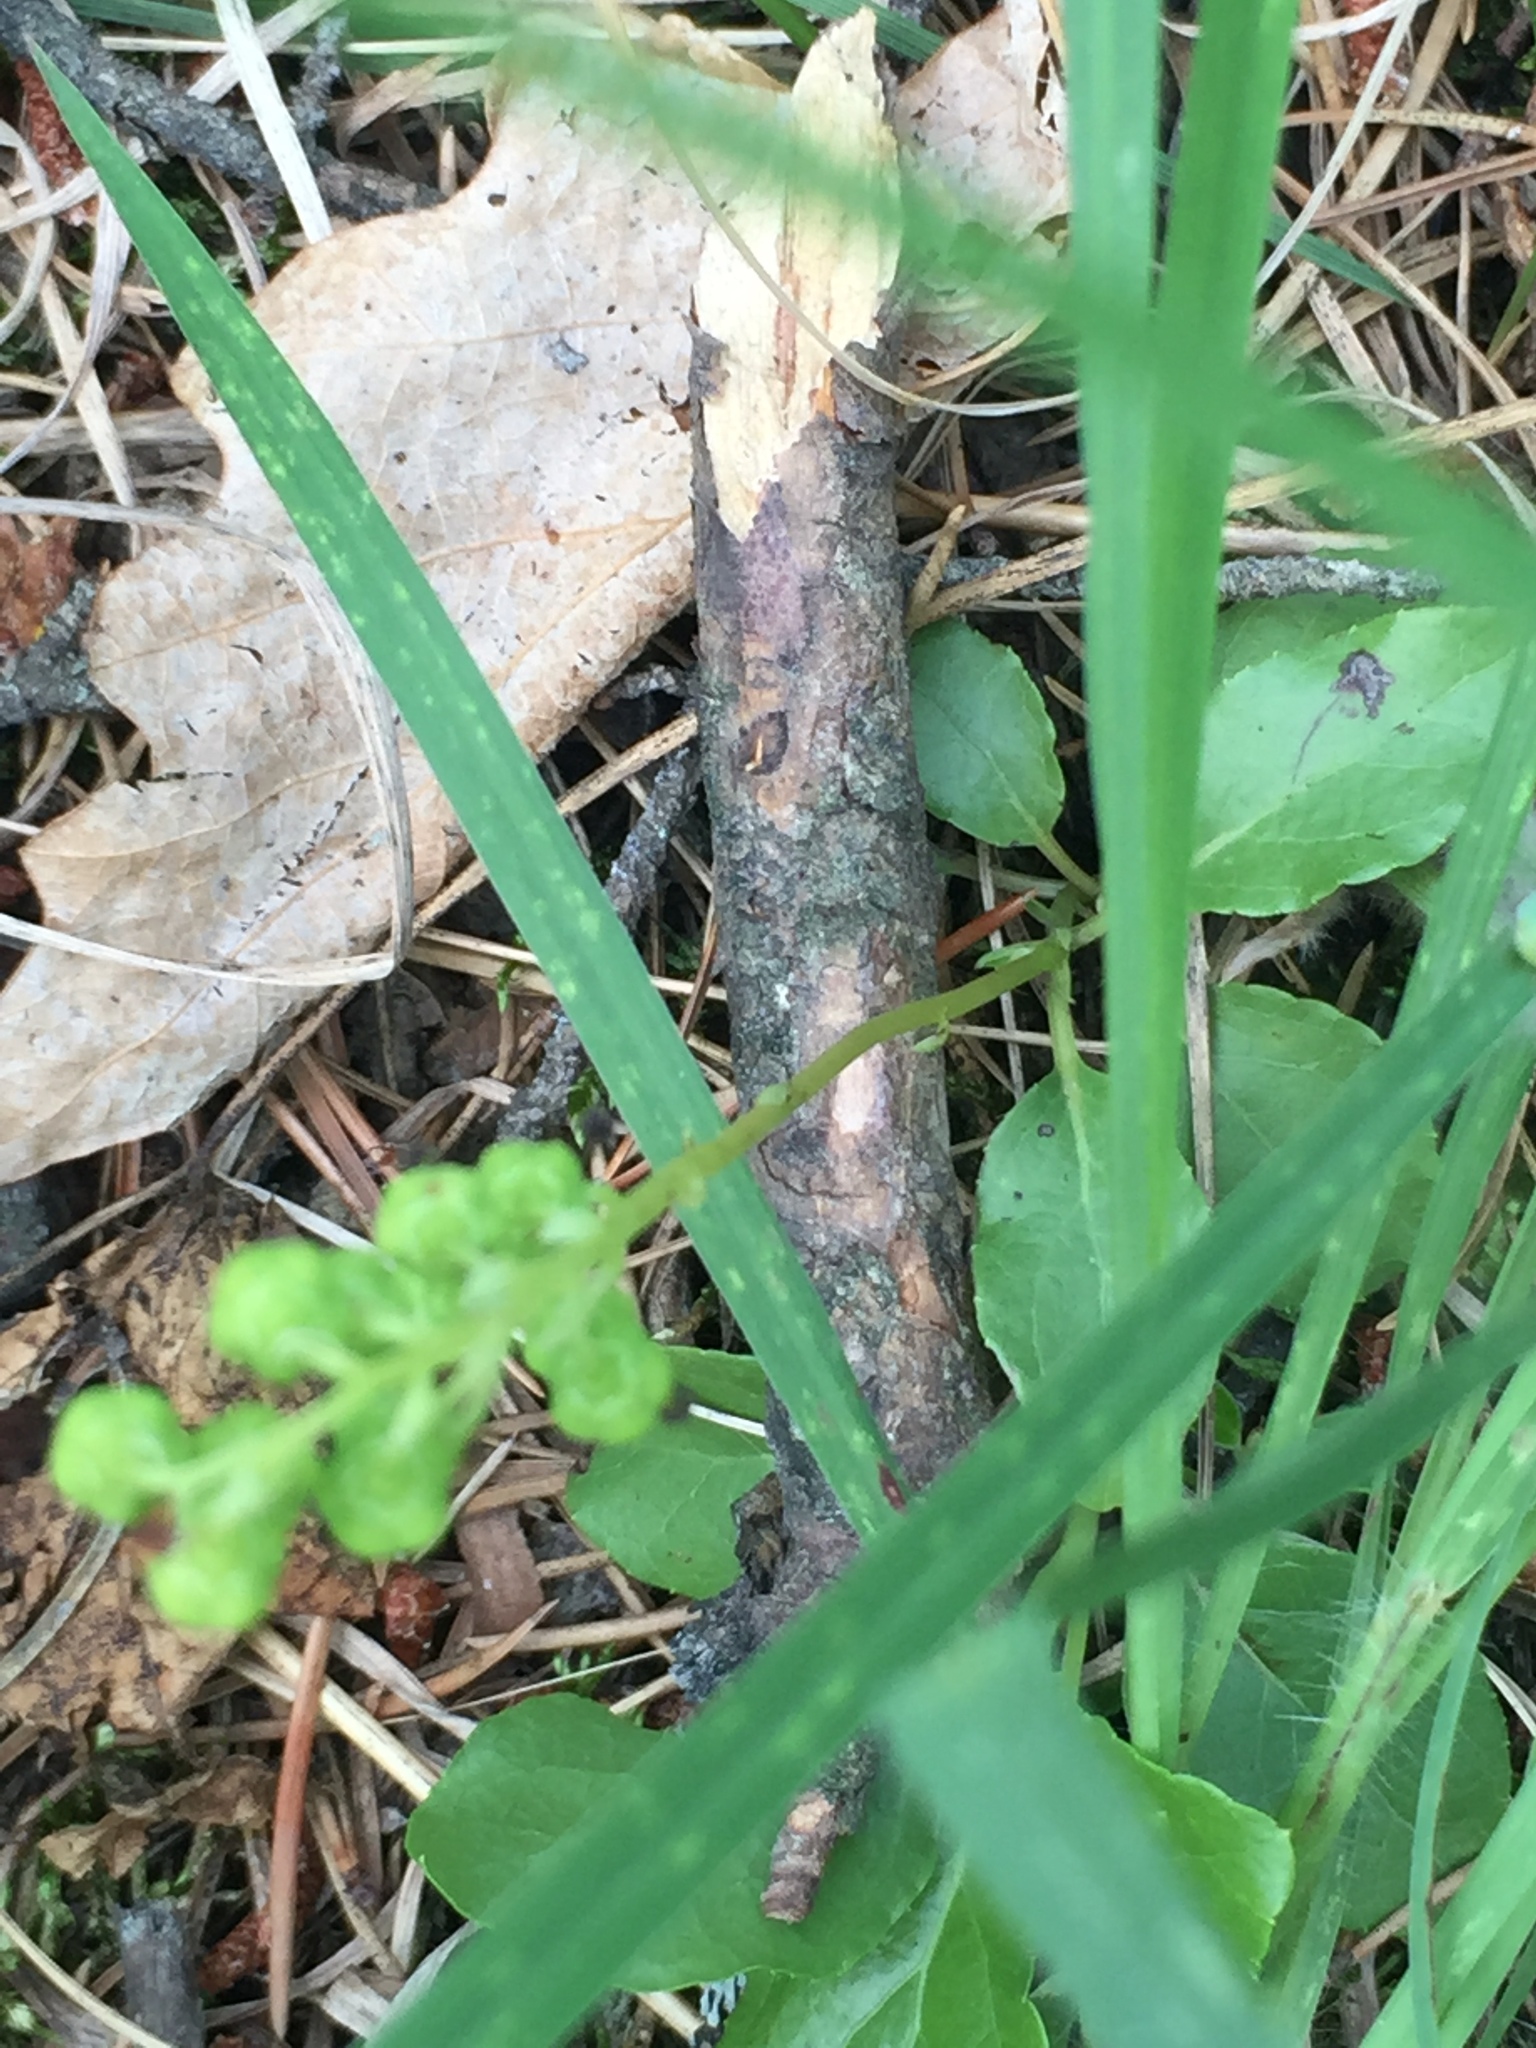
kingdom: Plantae
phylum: Tracheophyta
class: Magnoliopsida
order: Ericales
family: Ericaceae
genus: Orthilia
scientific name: Orthilia secunda
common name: One-sided orthilia
